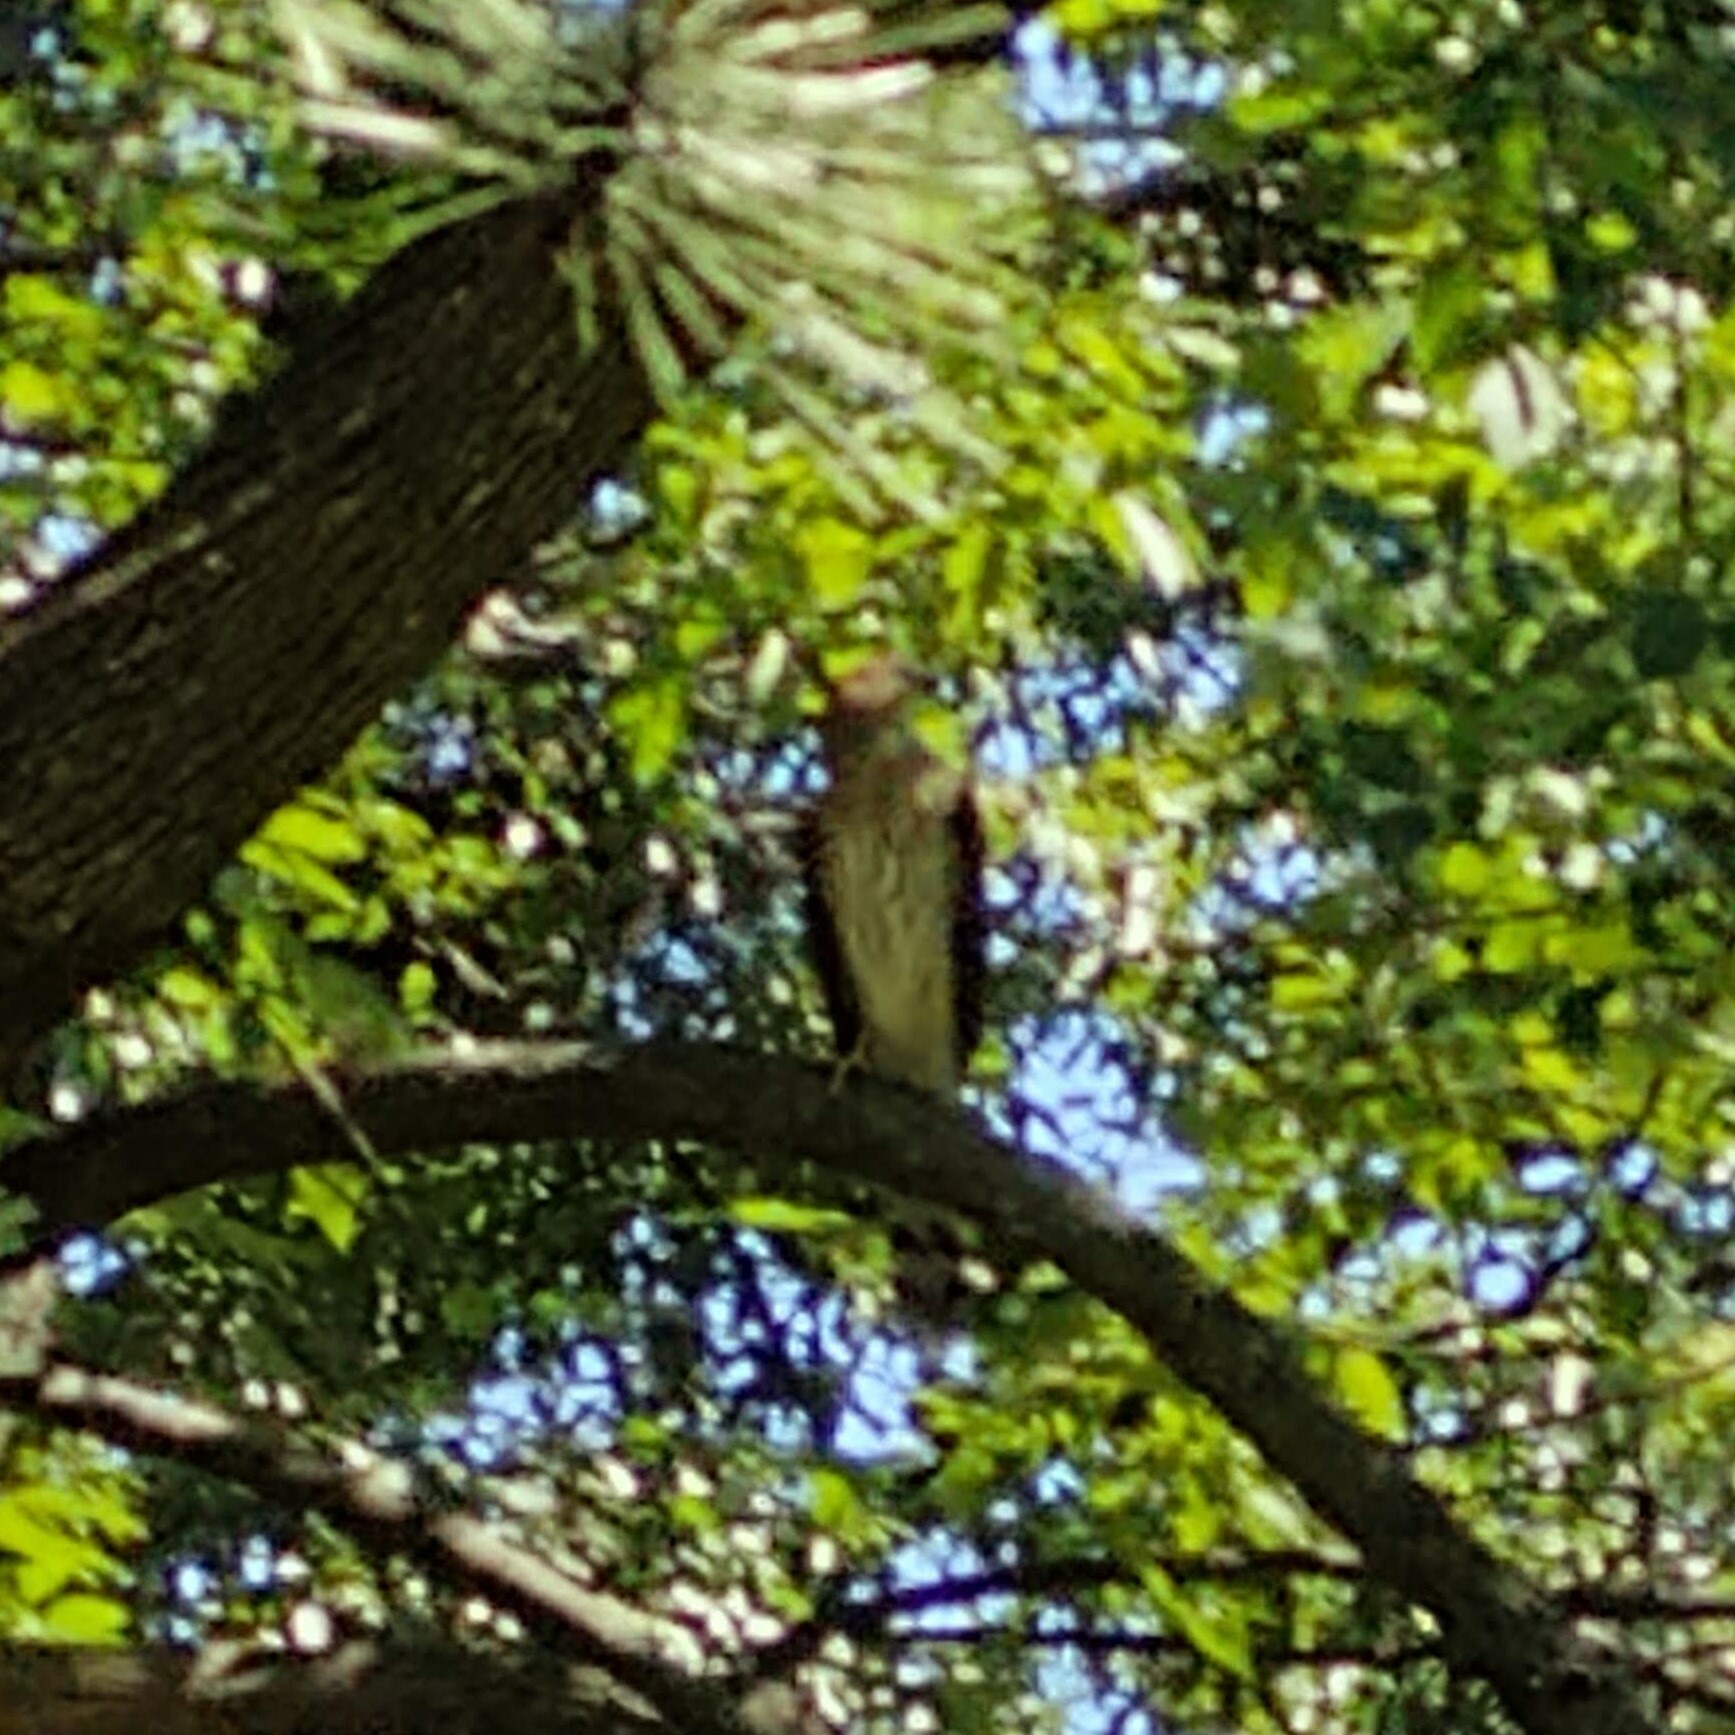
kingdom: Animalia
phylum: Chordata
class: Aves
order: Accipitriformes
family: Accipitridae
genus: Accipiter
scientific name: Accipiter cooperii
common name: Cooper's hawk
